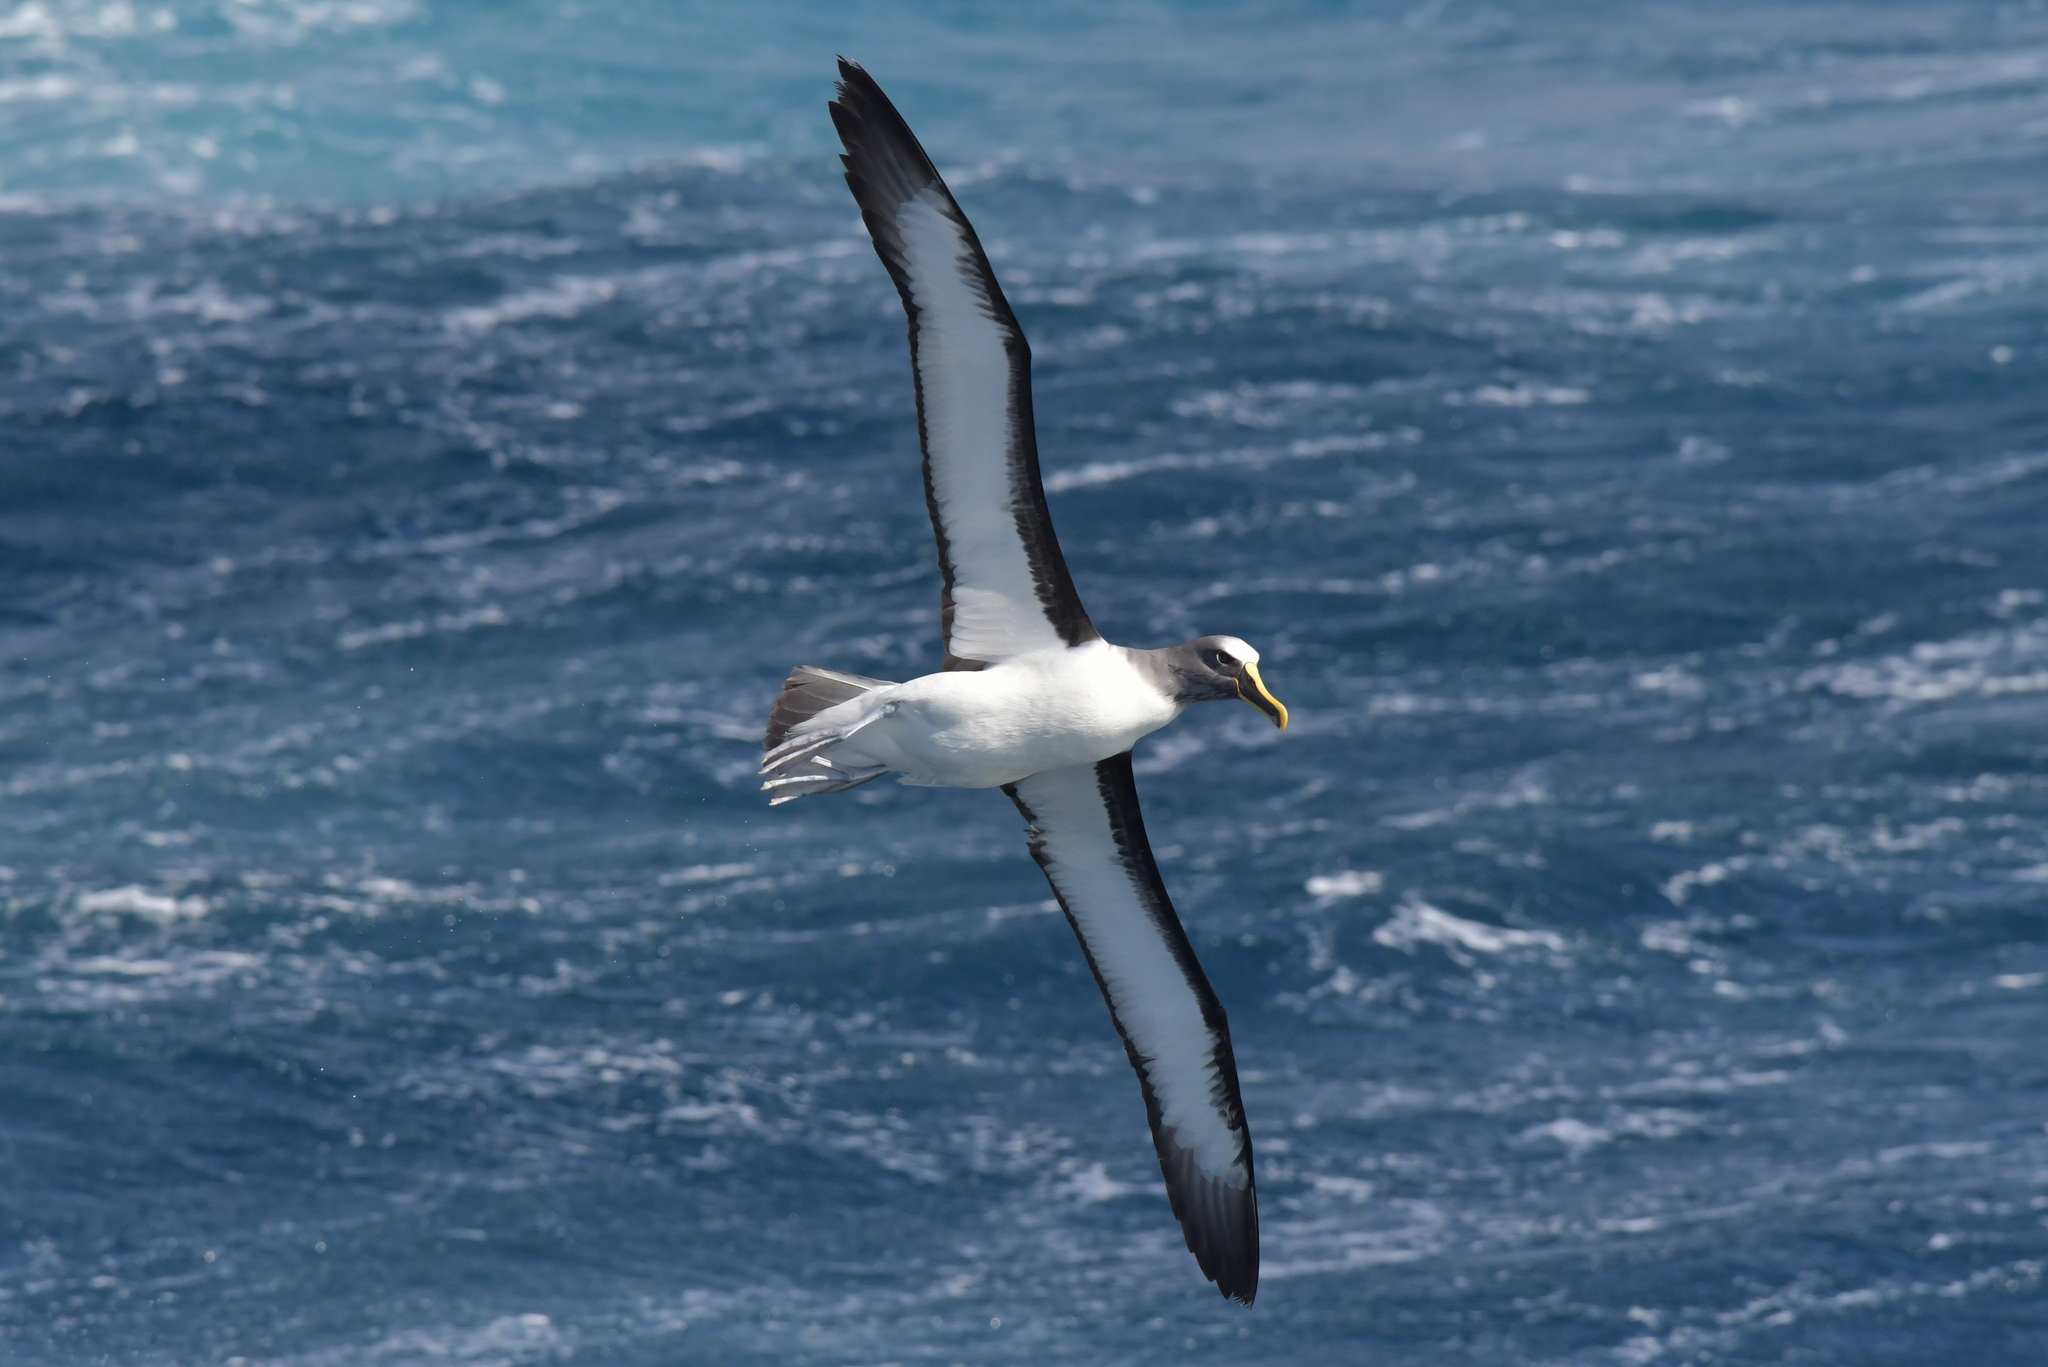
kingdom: Animalia
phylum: Chordata
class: Aves
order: Procellariiformes
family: Diomedeidae
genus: Thalassarche
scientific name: Thalassarche bulleri
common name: Buller's albatross
